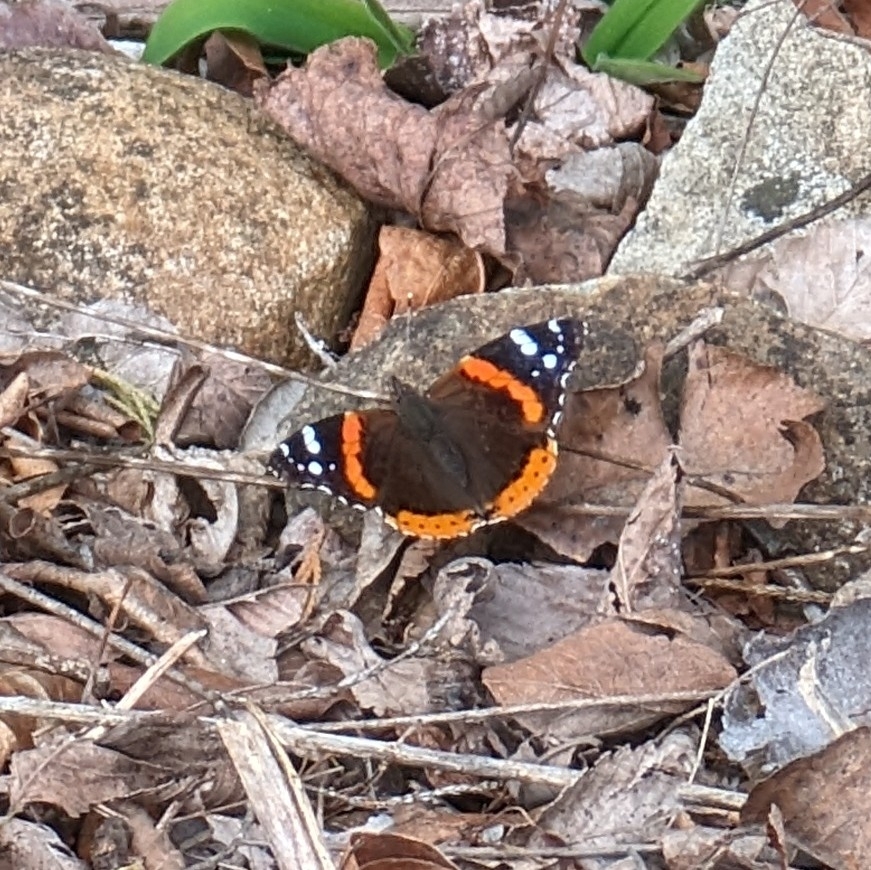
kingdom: Animalia
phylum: Arthropoda
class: Insecta
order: Lepidoptera
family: Nymphalidae
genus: Vanessa
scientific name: Vanessa atalanta
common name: Red admiral
